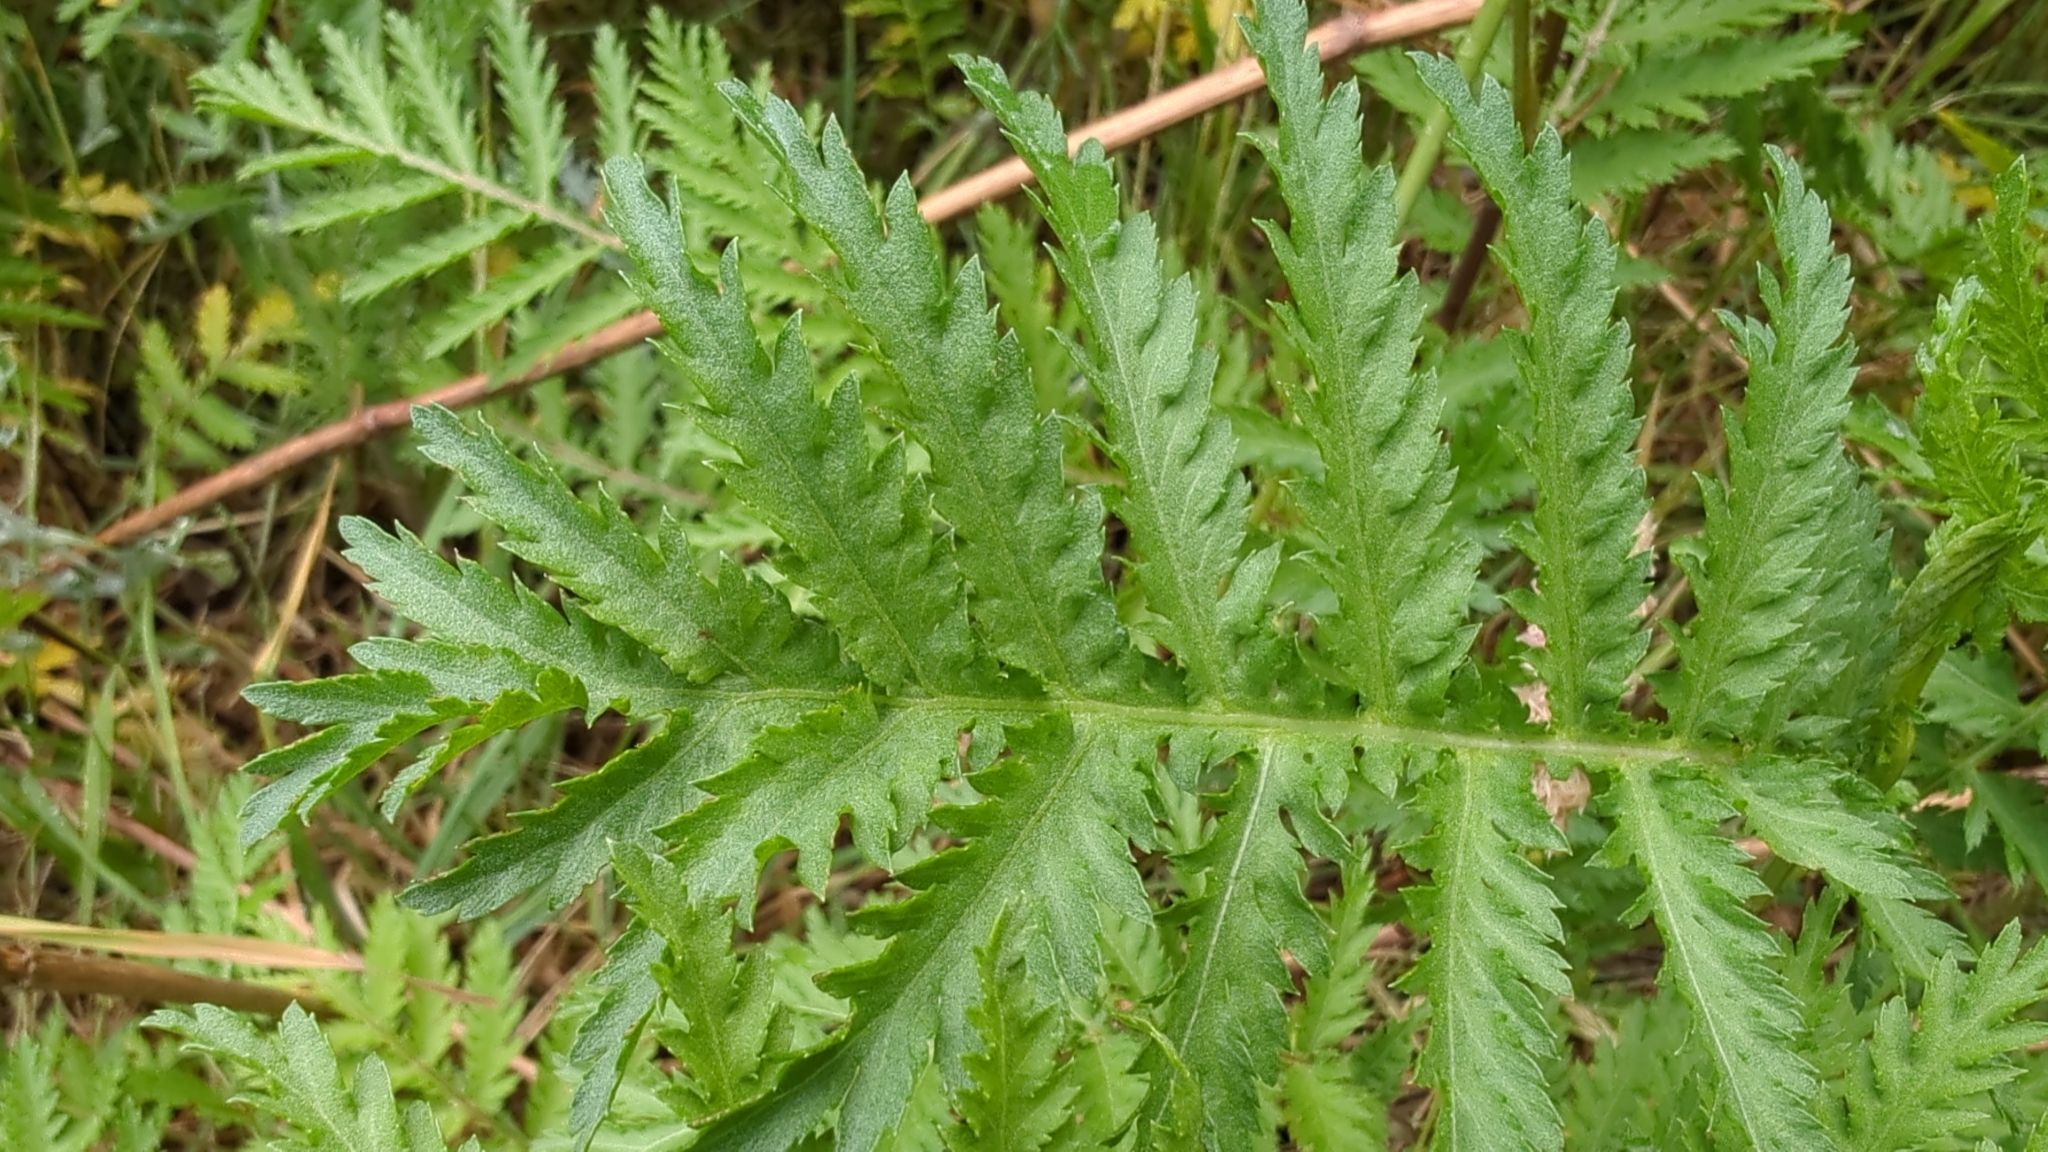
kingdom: Plantae
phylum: Tracheophyta
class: Magnoliopsida
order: Asterales
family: Asteraceae
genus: Tanacetum
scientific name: Tanacetum vulgare
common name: Common tansy
